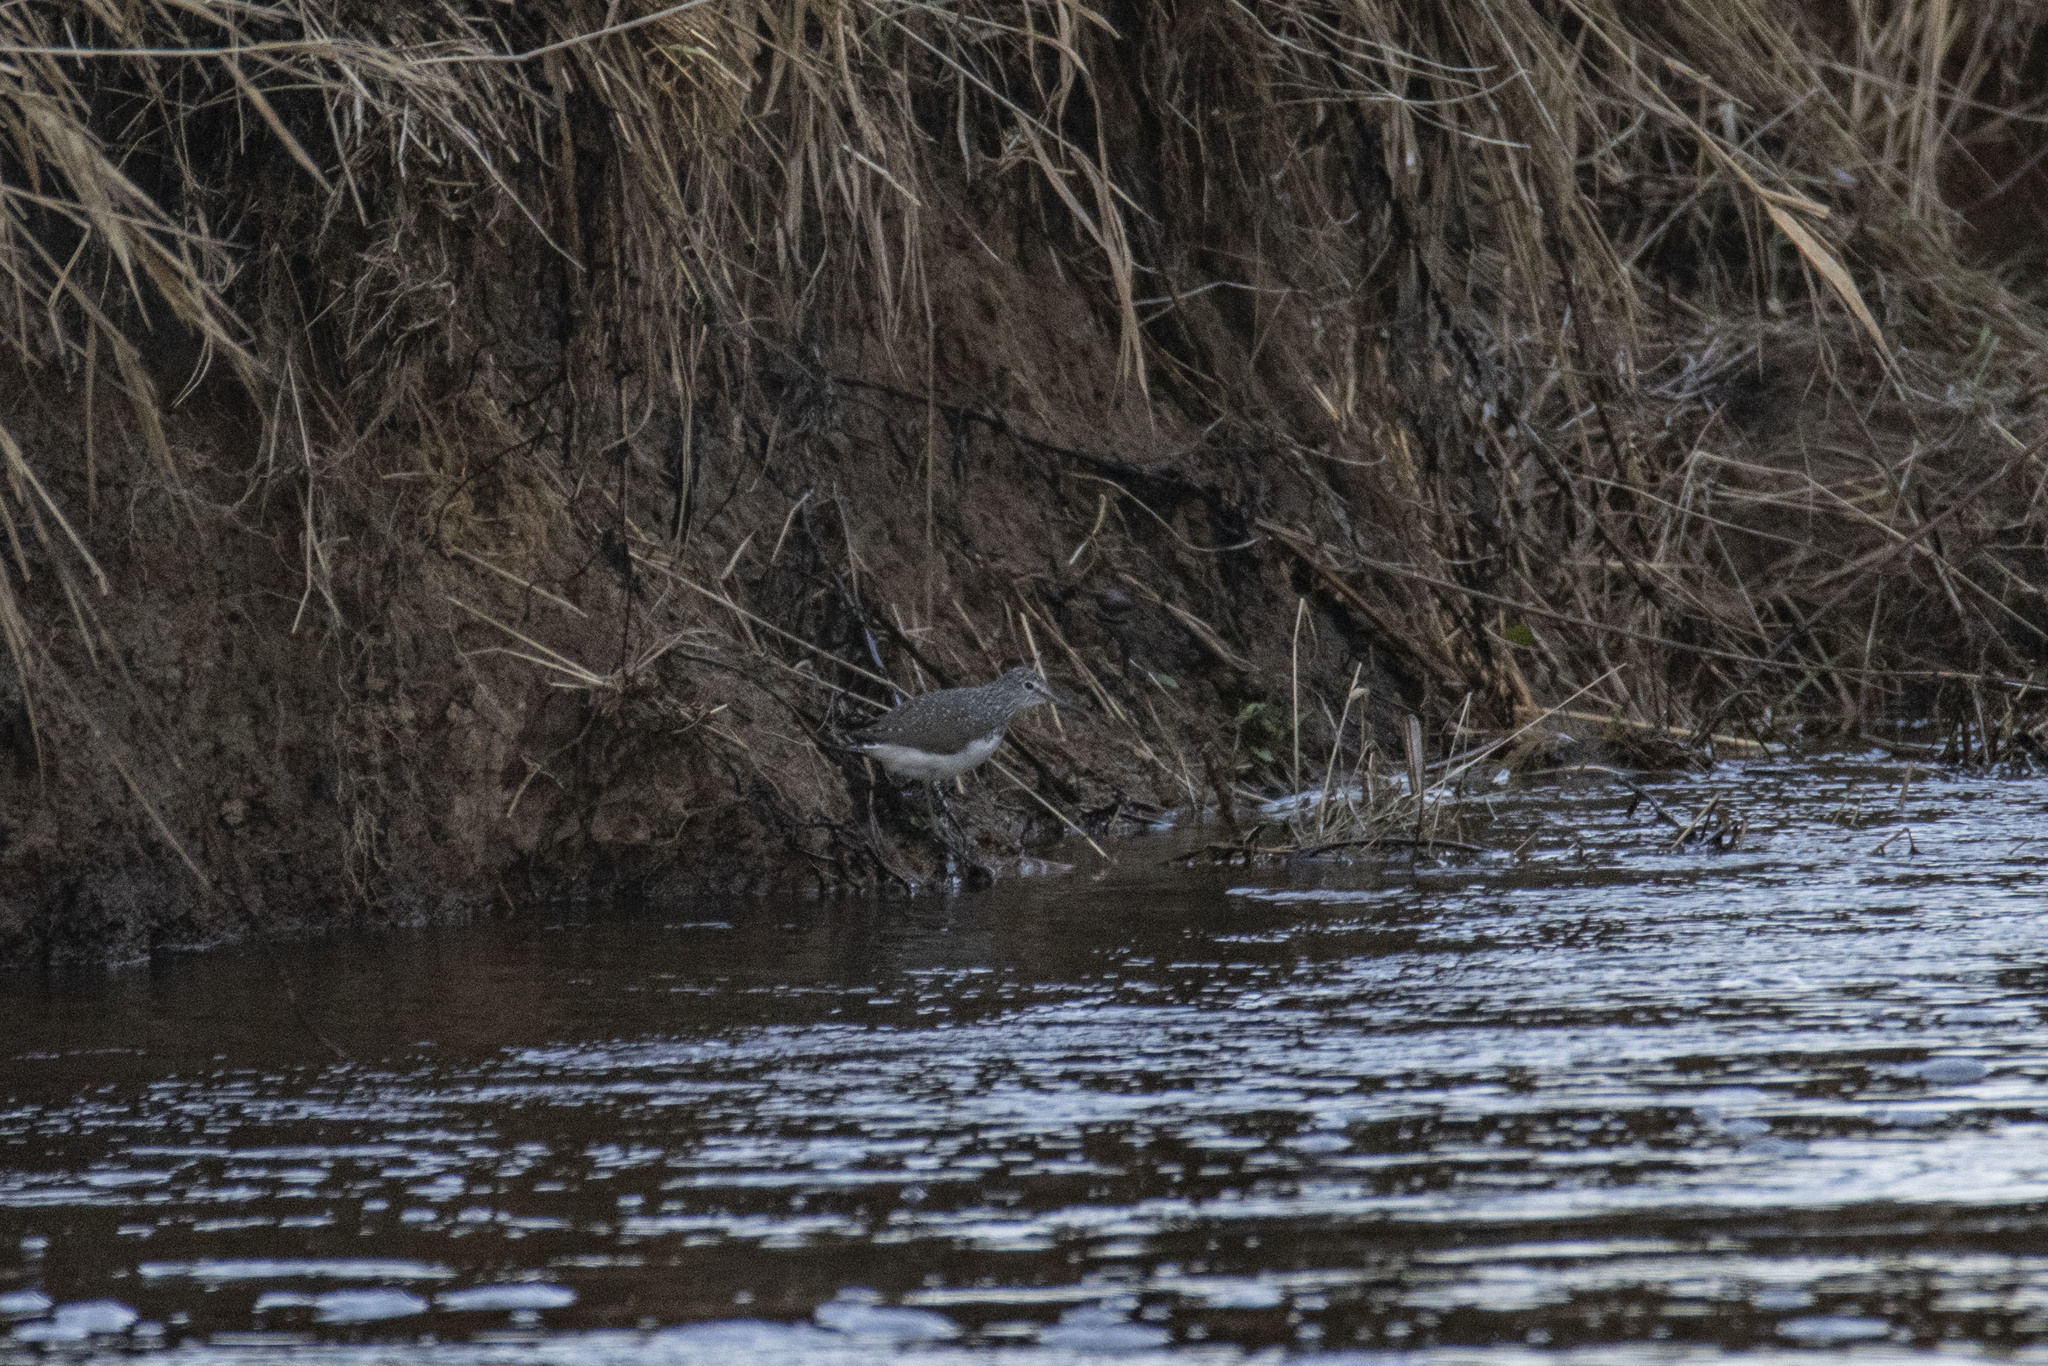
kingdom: Animalia
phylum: Chordata
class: Aves
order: Charadriiformes
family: Scolopacidae
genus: Tringa
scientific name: Tringa ochropus
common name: Green sandpiper
